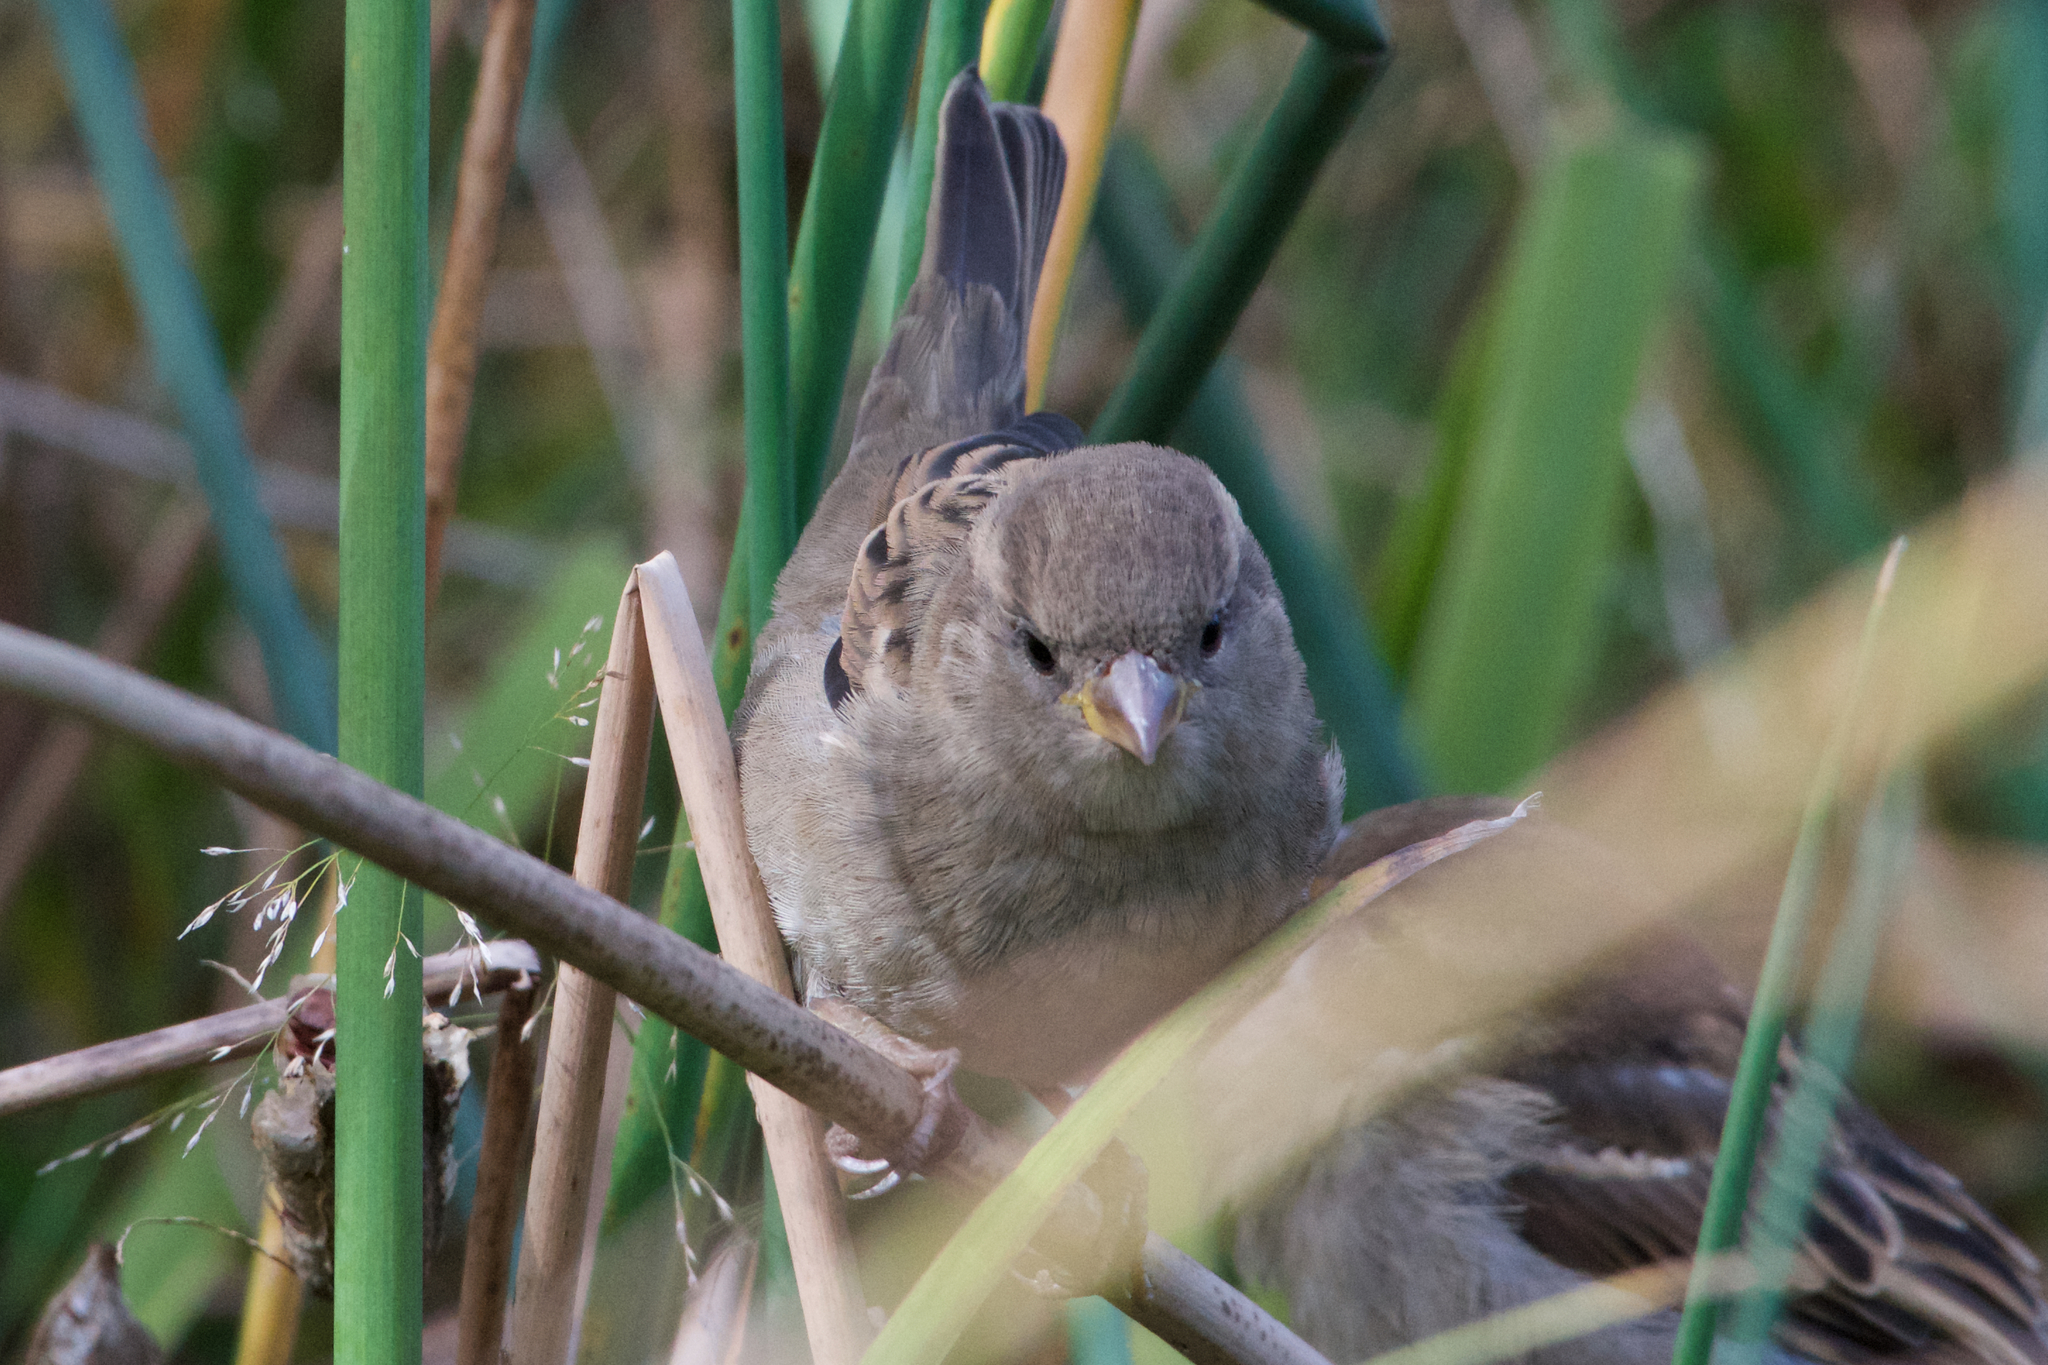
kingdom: Animalia
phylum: Chordata
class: Aves
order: Passeriformes
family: Passeridae
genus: Passer
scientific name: Passer domesticus
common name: House sparrow
